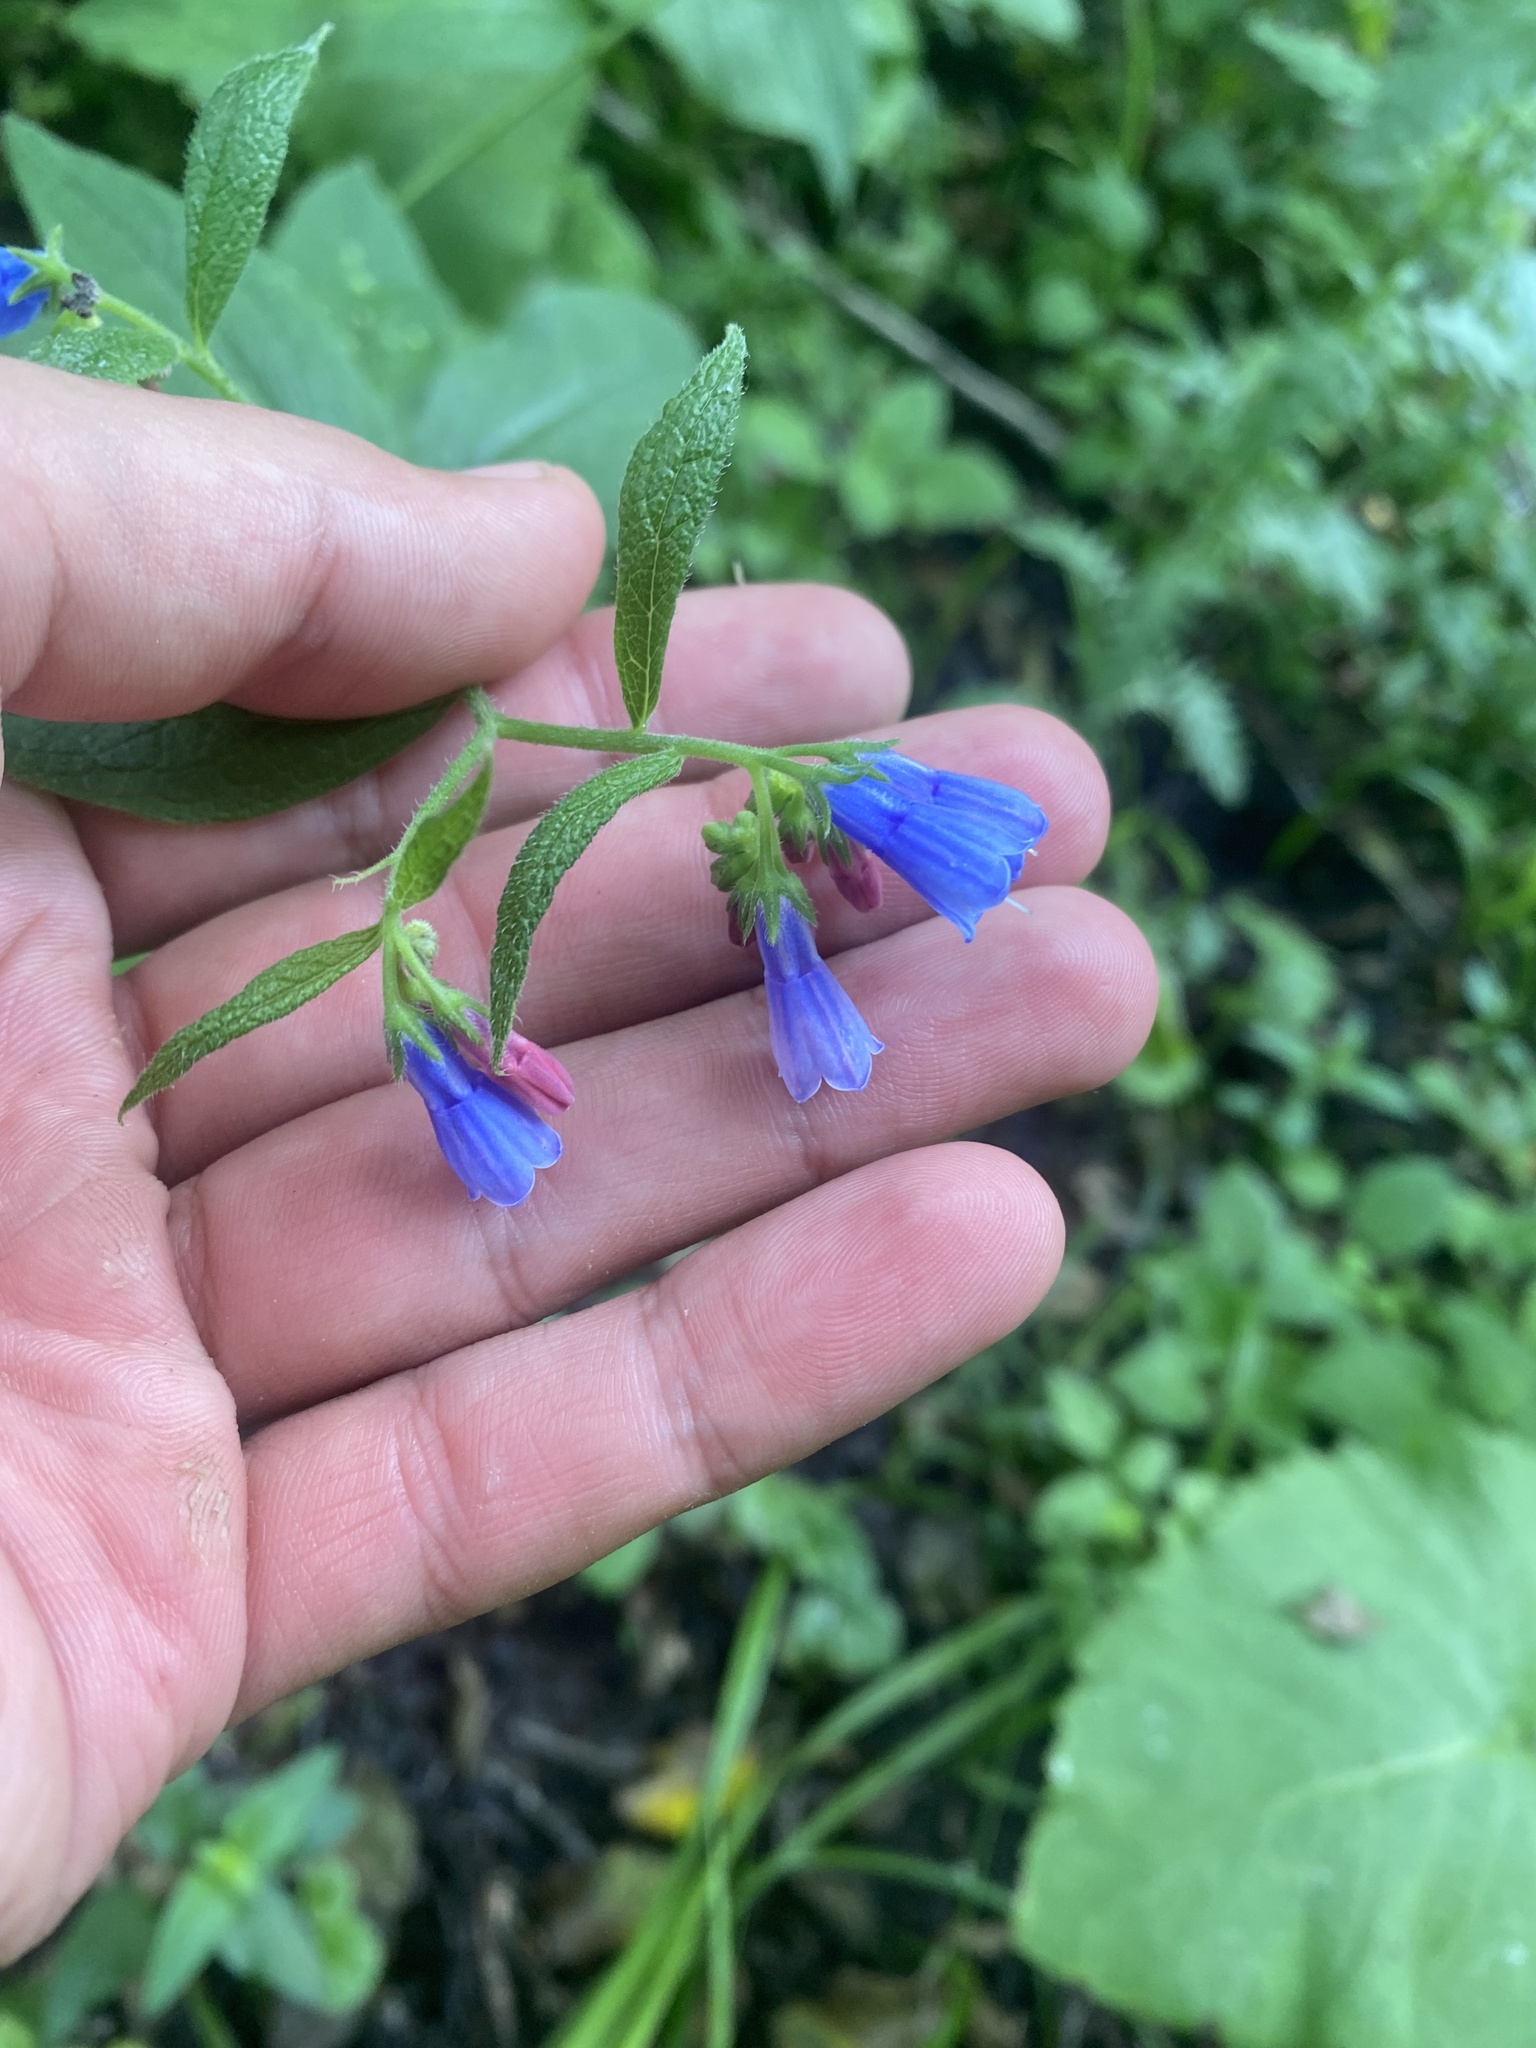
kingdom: Plantae
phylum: Tracheophyta
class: Magnoliopsida
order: Boraginales
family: Boraginaceae
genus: Symphytum
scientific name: Symphytum asperum
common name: Prickly comfrey
